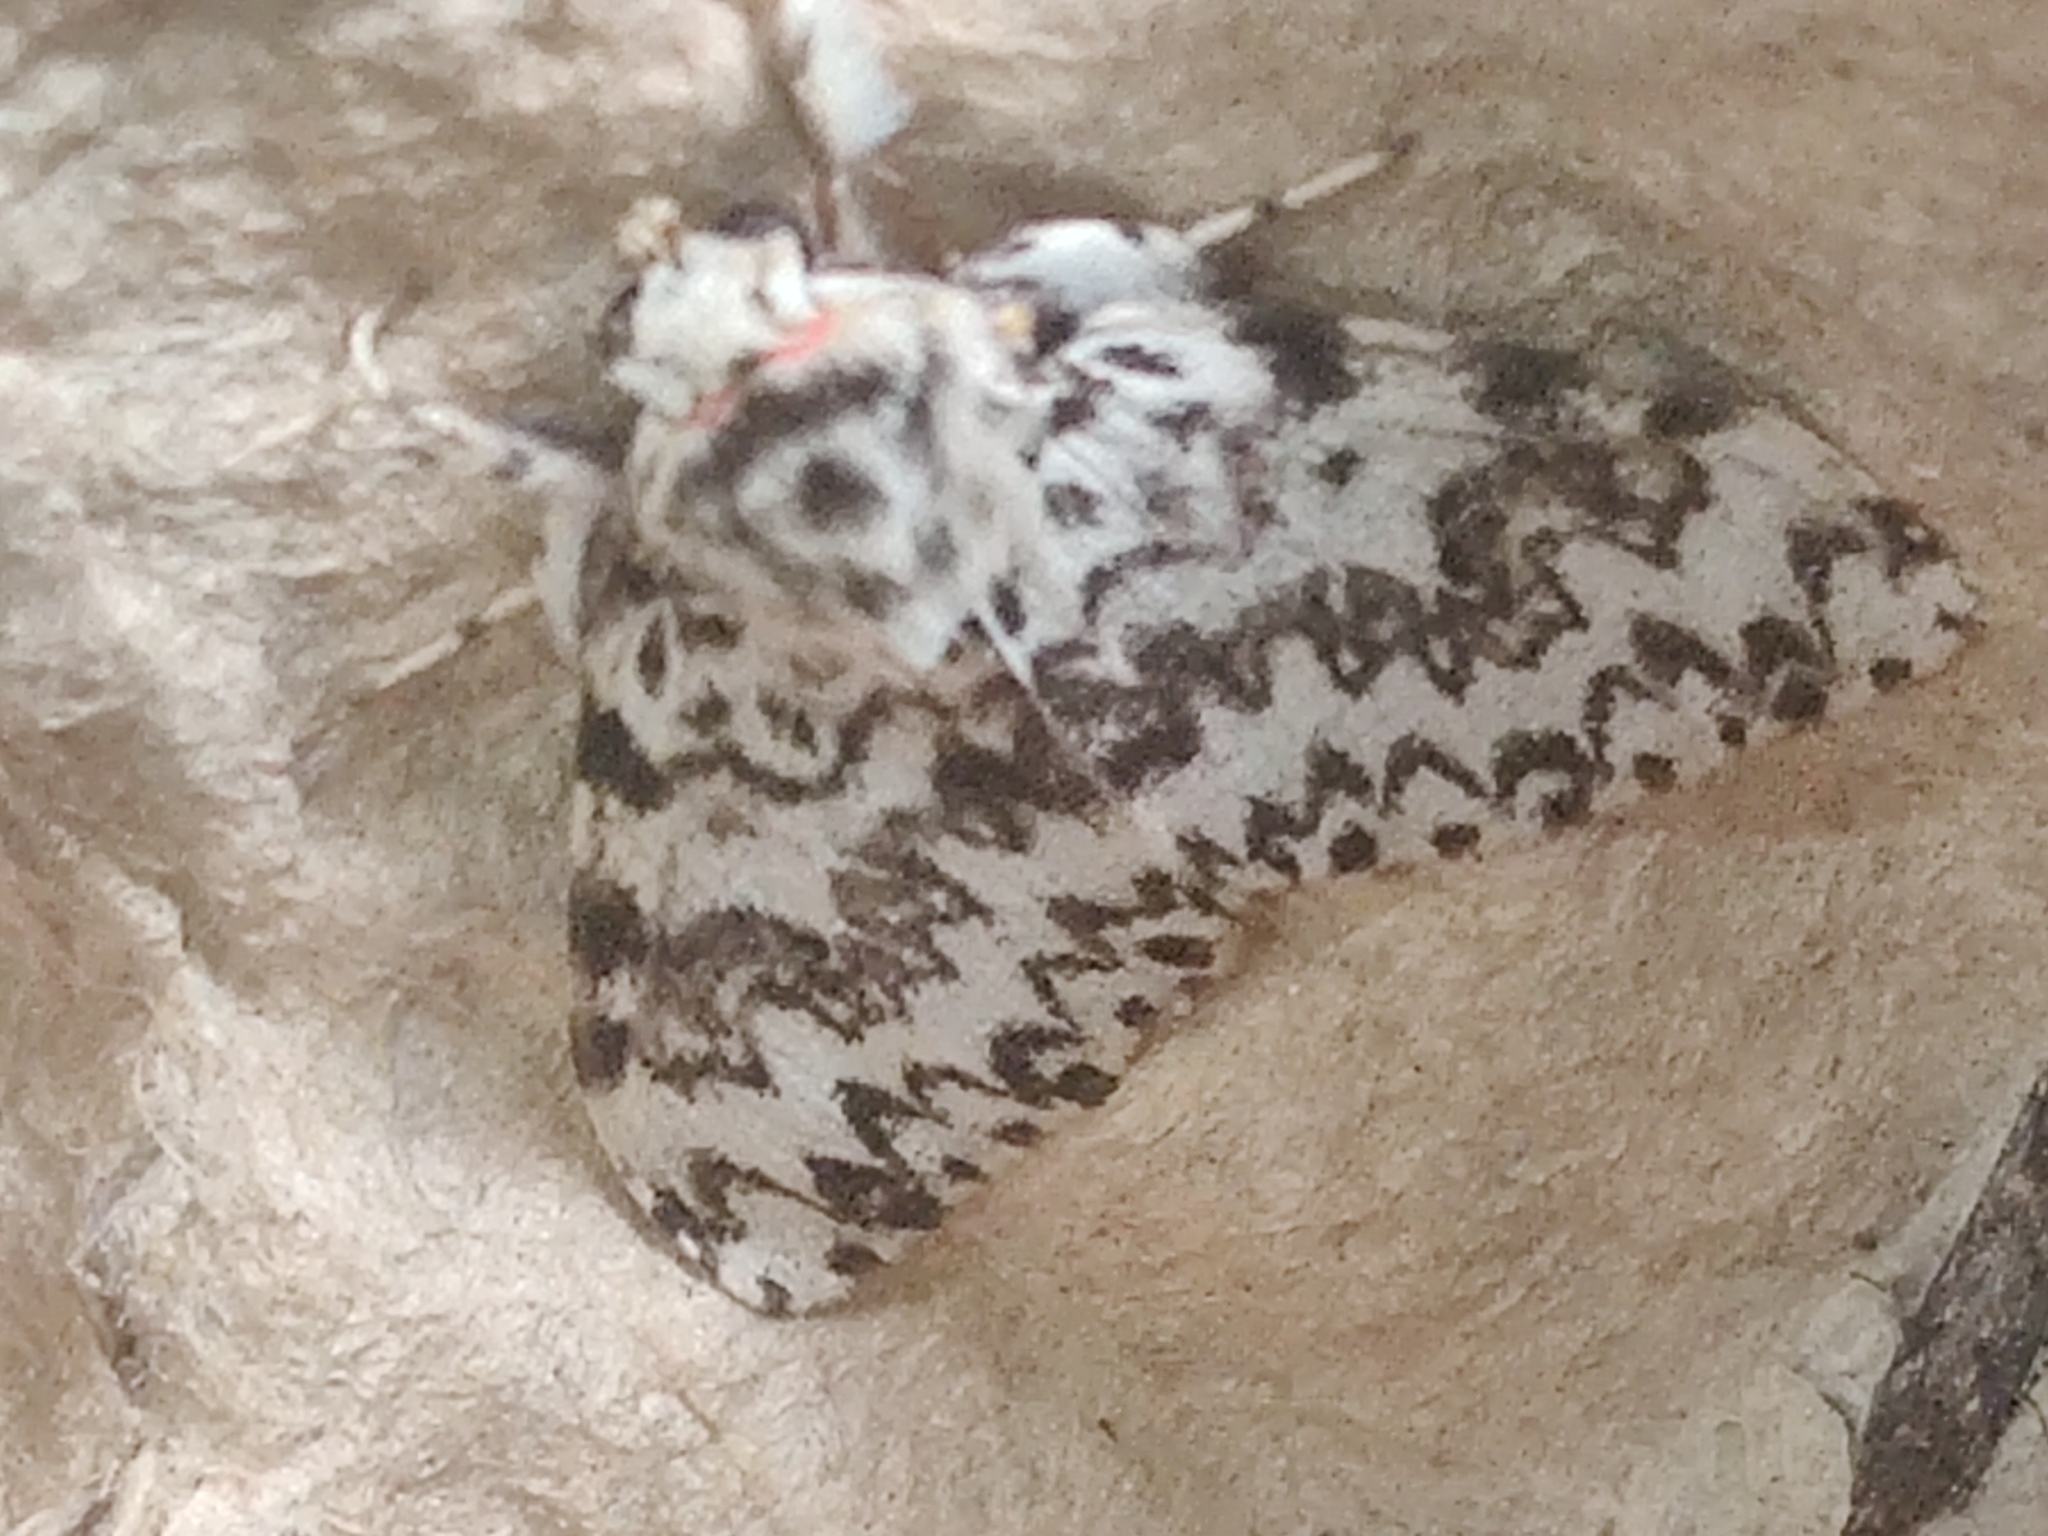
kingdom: Animalia
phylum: Arthropoda
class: Insecta
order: Lepidoptera
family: Erebidae
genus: Lymantria
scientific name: Lymantria monacha
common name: Black arches
